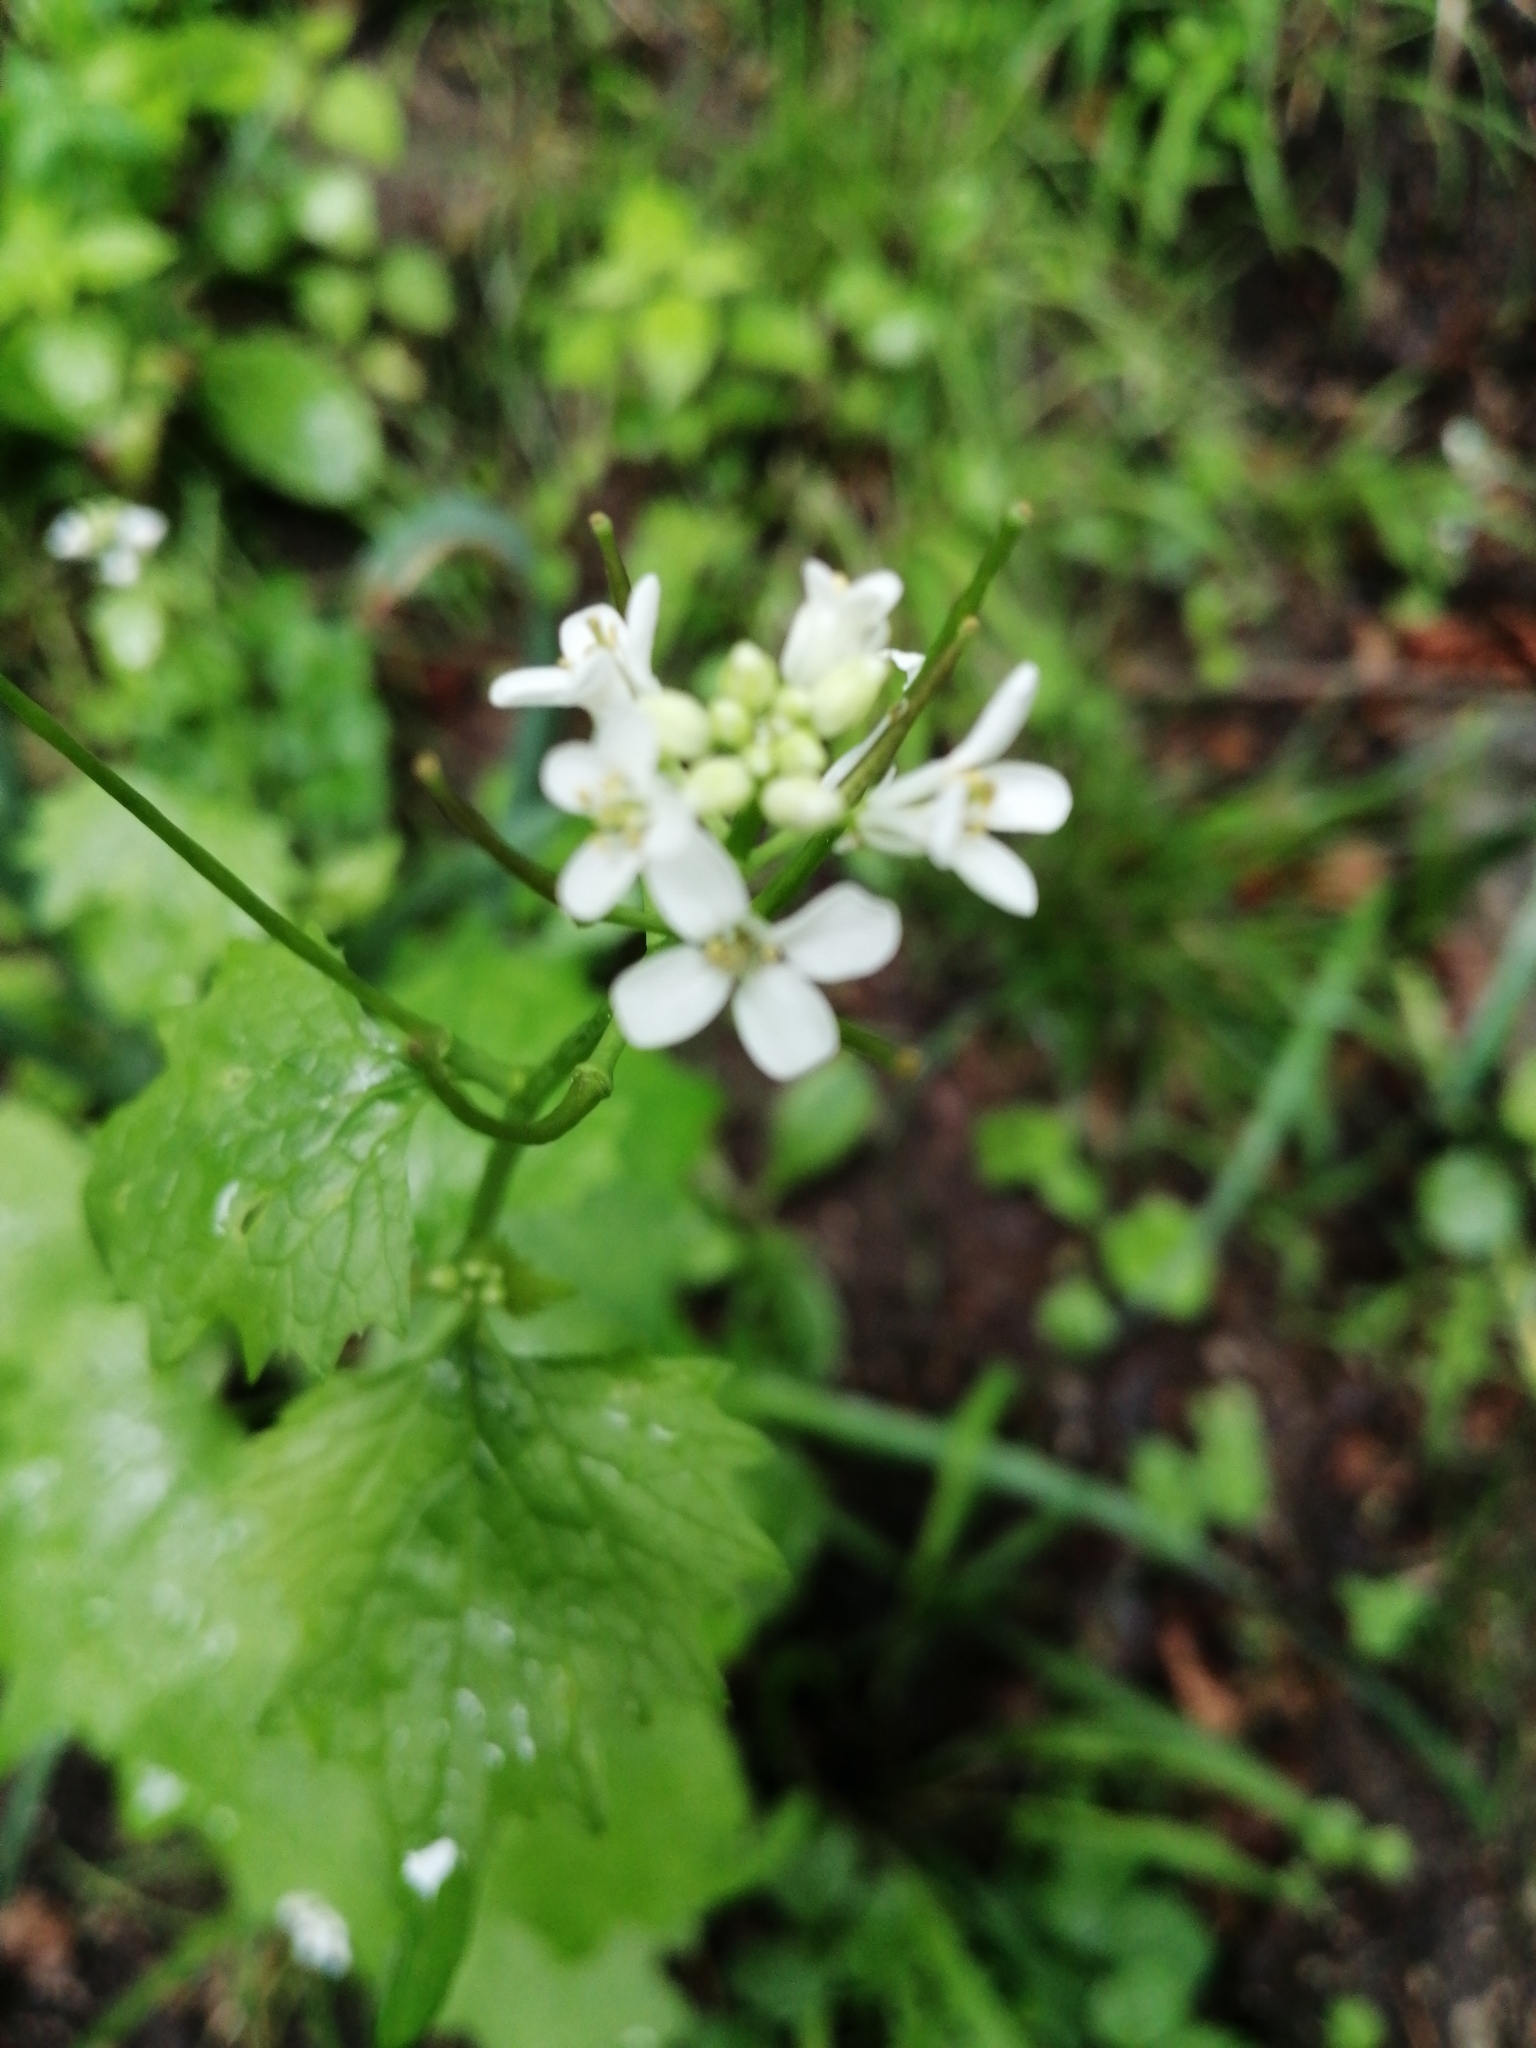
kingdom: Plantae
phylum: Tracheophyta
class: Magnoliopsida
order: Brassicales
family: Brassicaceae
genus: Alliaria
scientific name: Alliaria petiolata
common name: Garlic mustard
